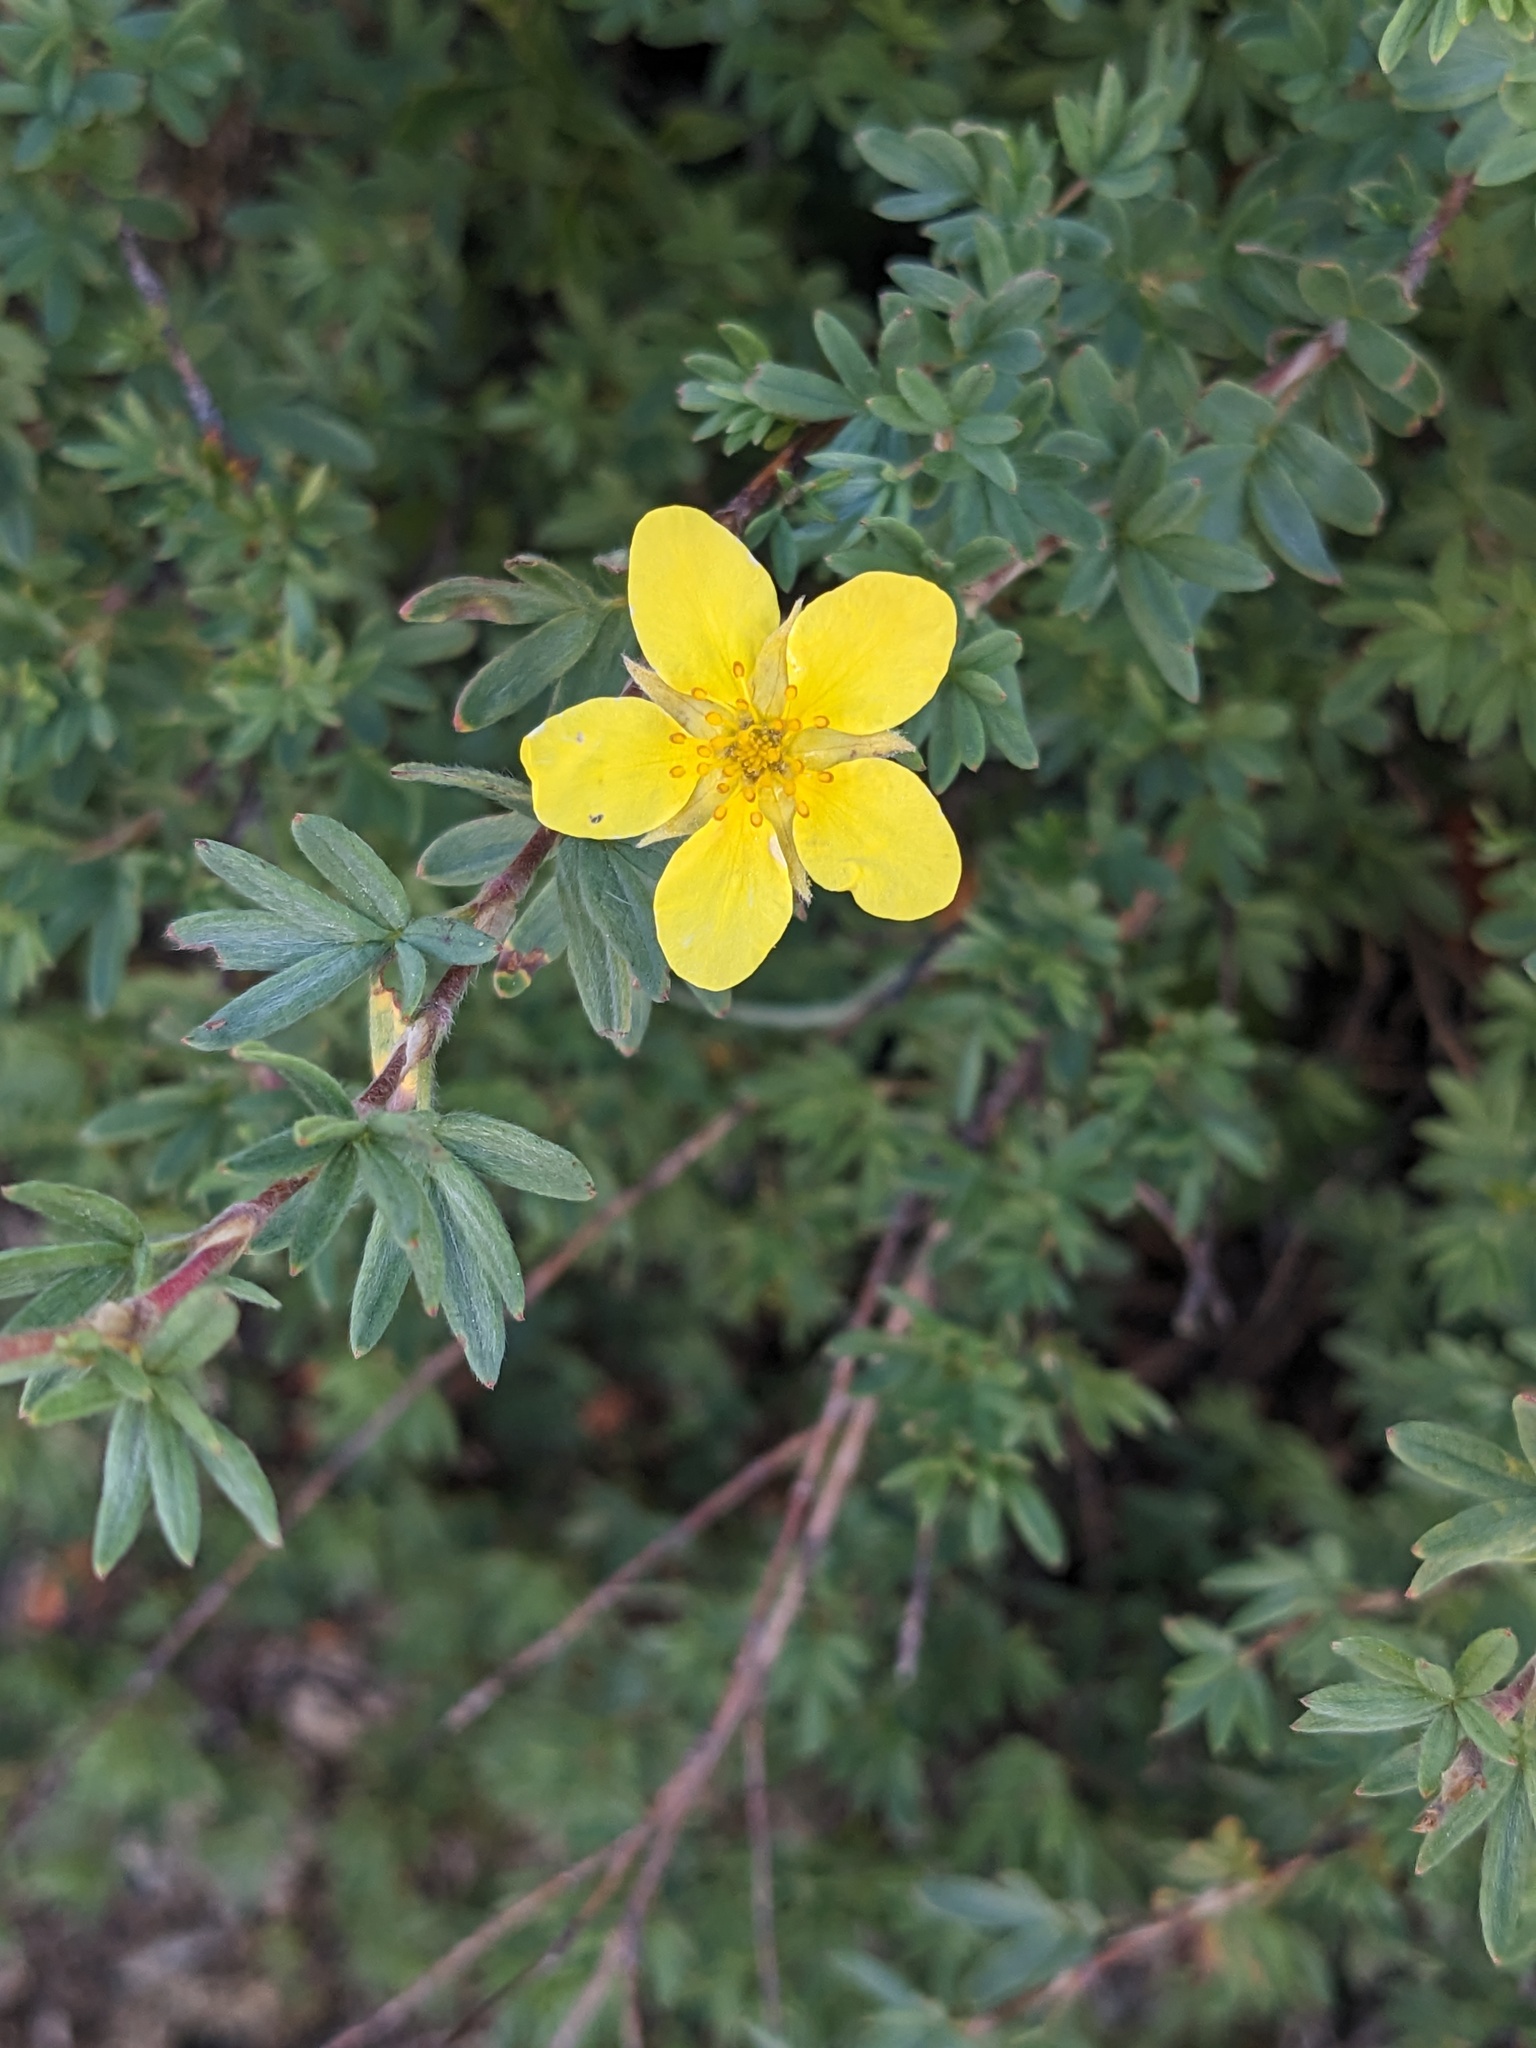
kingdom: Plantae
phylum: Tracheophyta
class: Magnoliopsida
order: Rosales
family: Rosaceae
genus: Dasiphora
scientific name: Dasiphora fruticosa
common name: Shrubby cinquefoil
